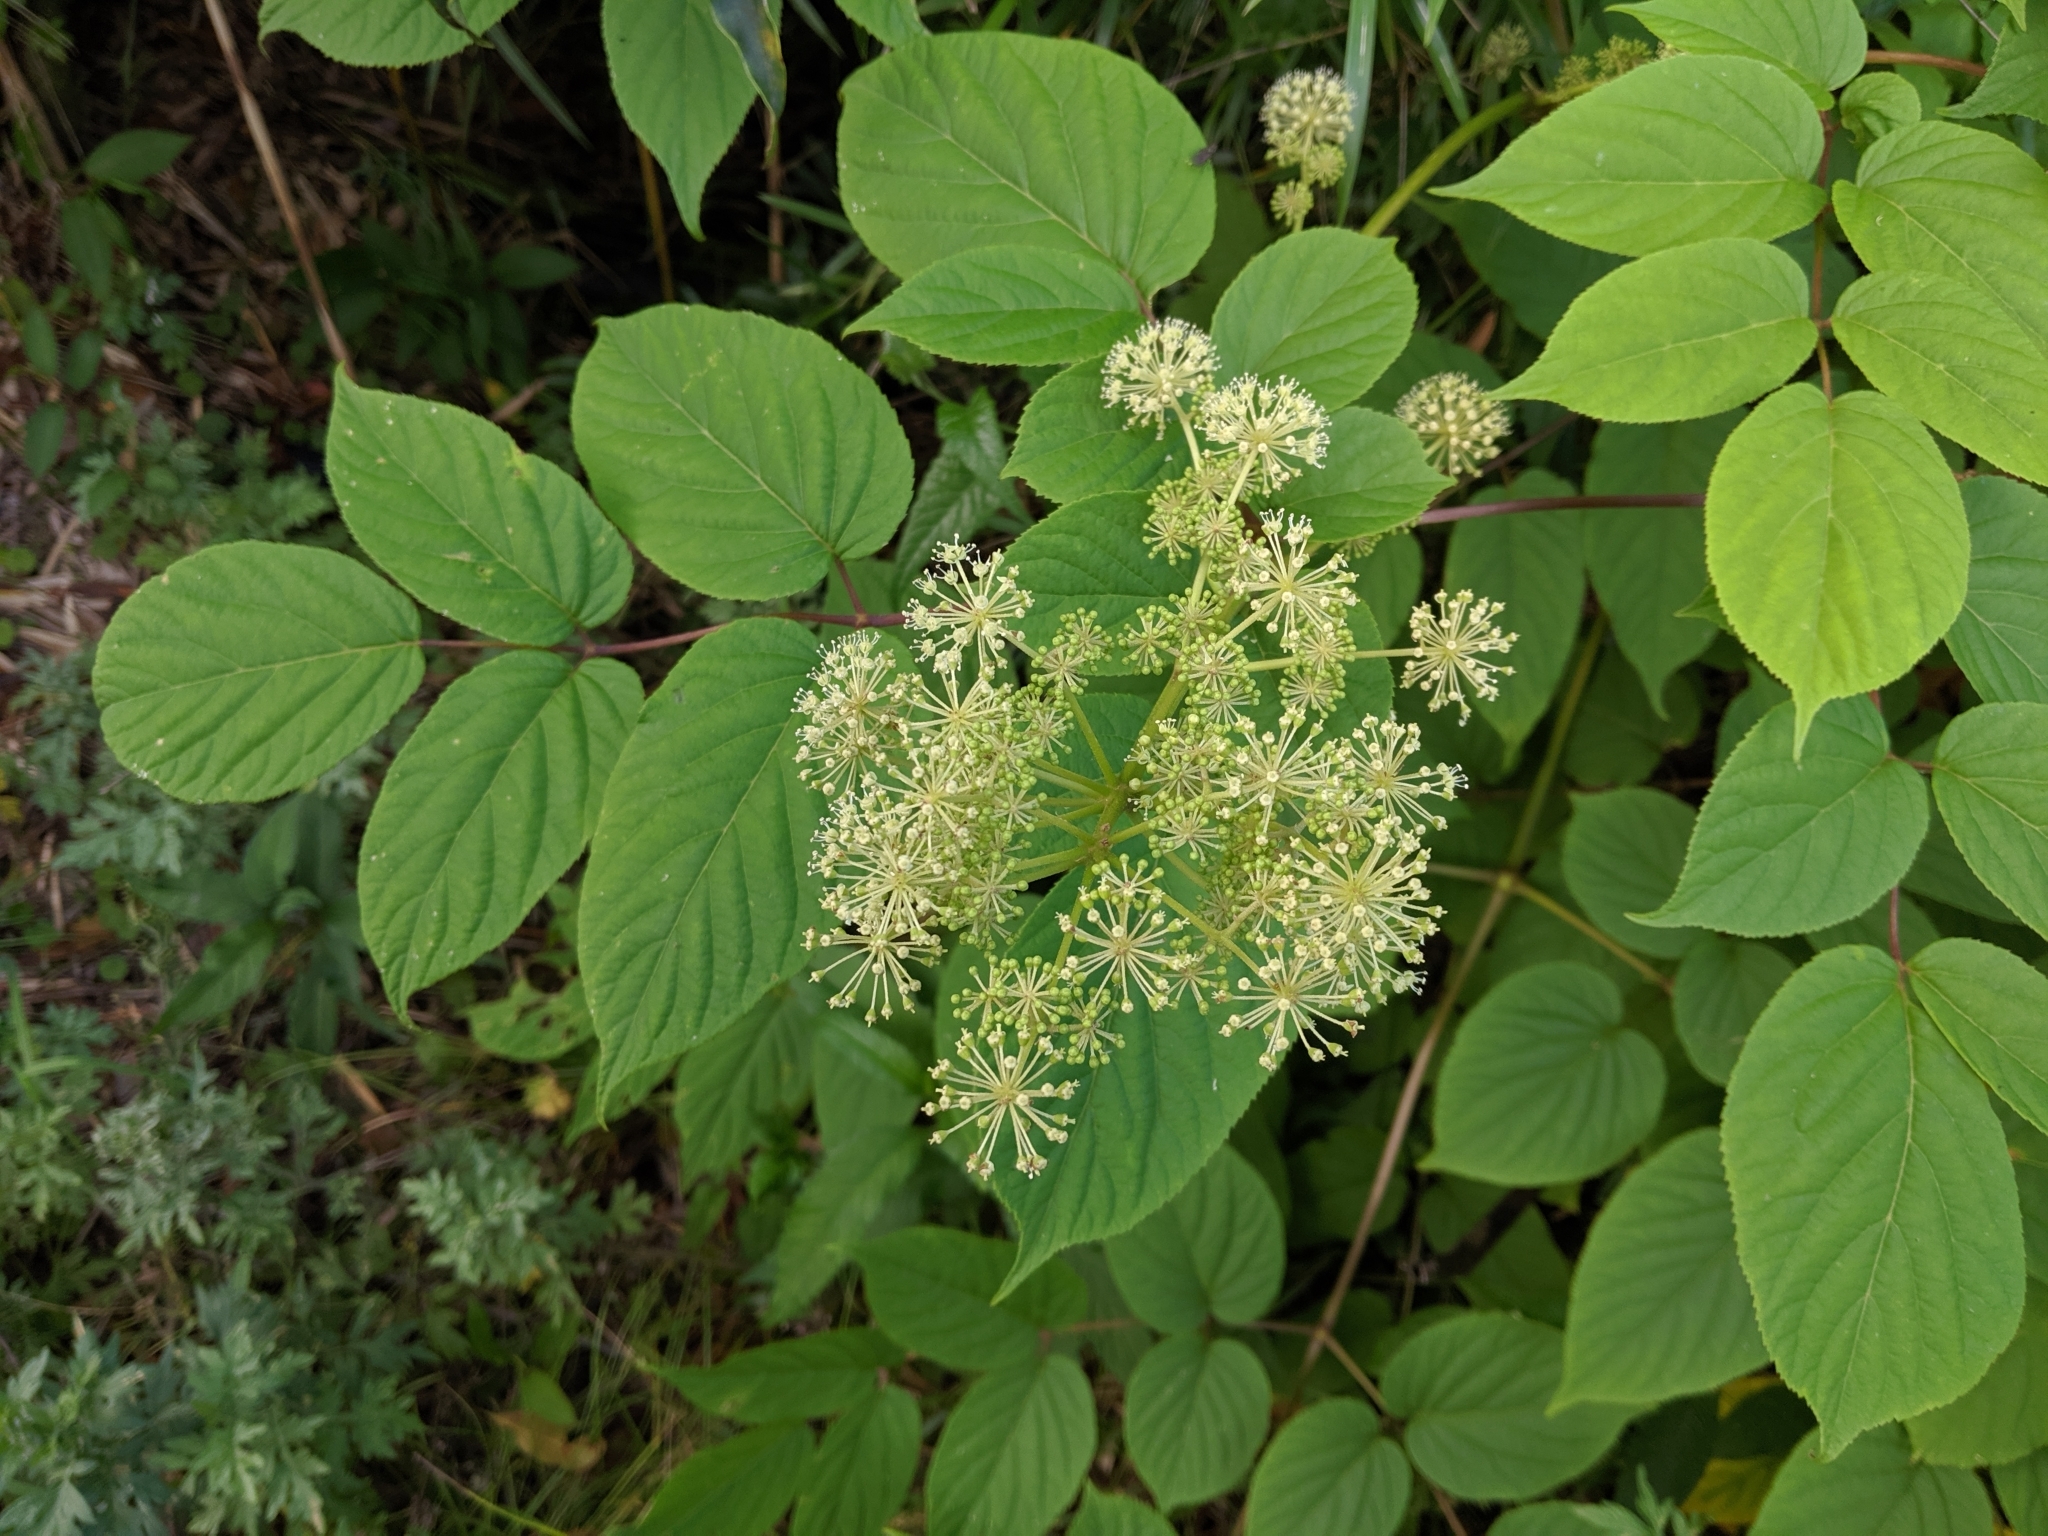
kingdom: Plantae
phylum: Tracheophyta
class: Magnoliopsida
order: Apiales
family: Araliaceae
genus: Aralia
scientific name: Aralia cordata
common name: Udo
